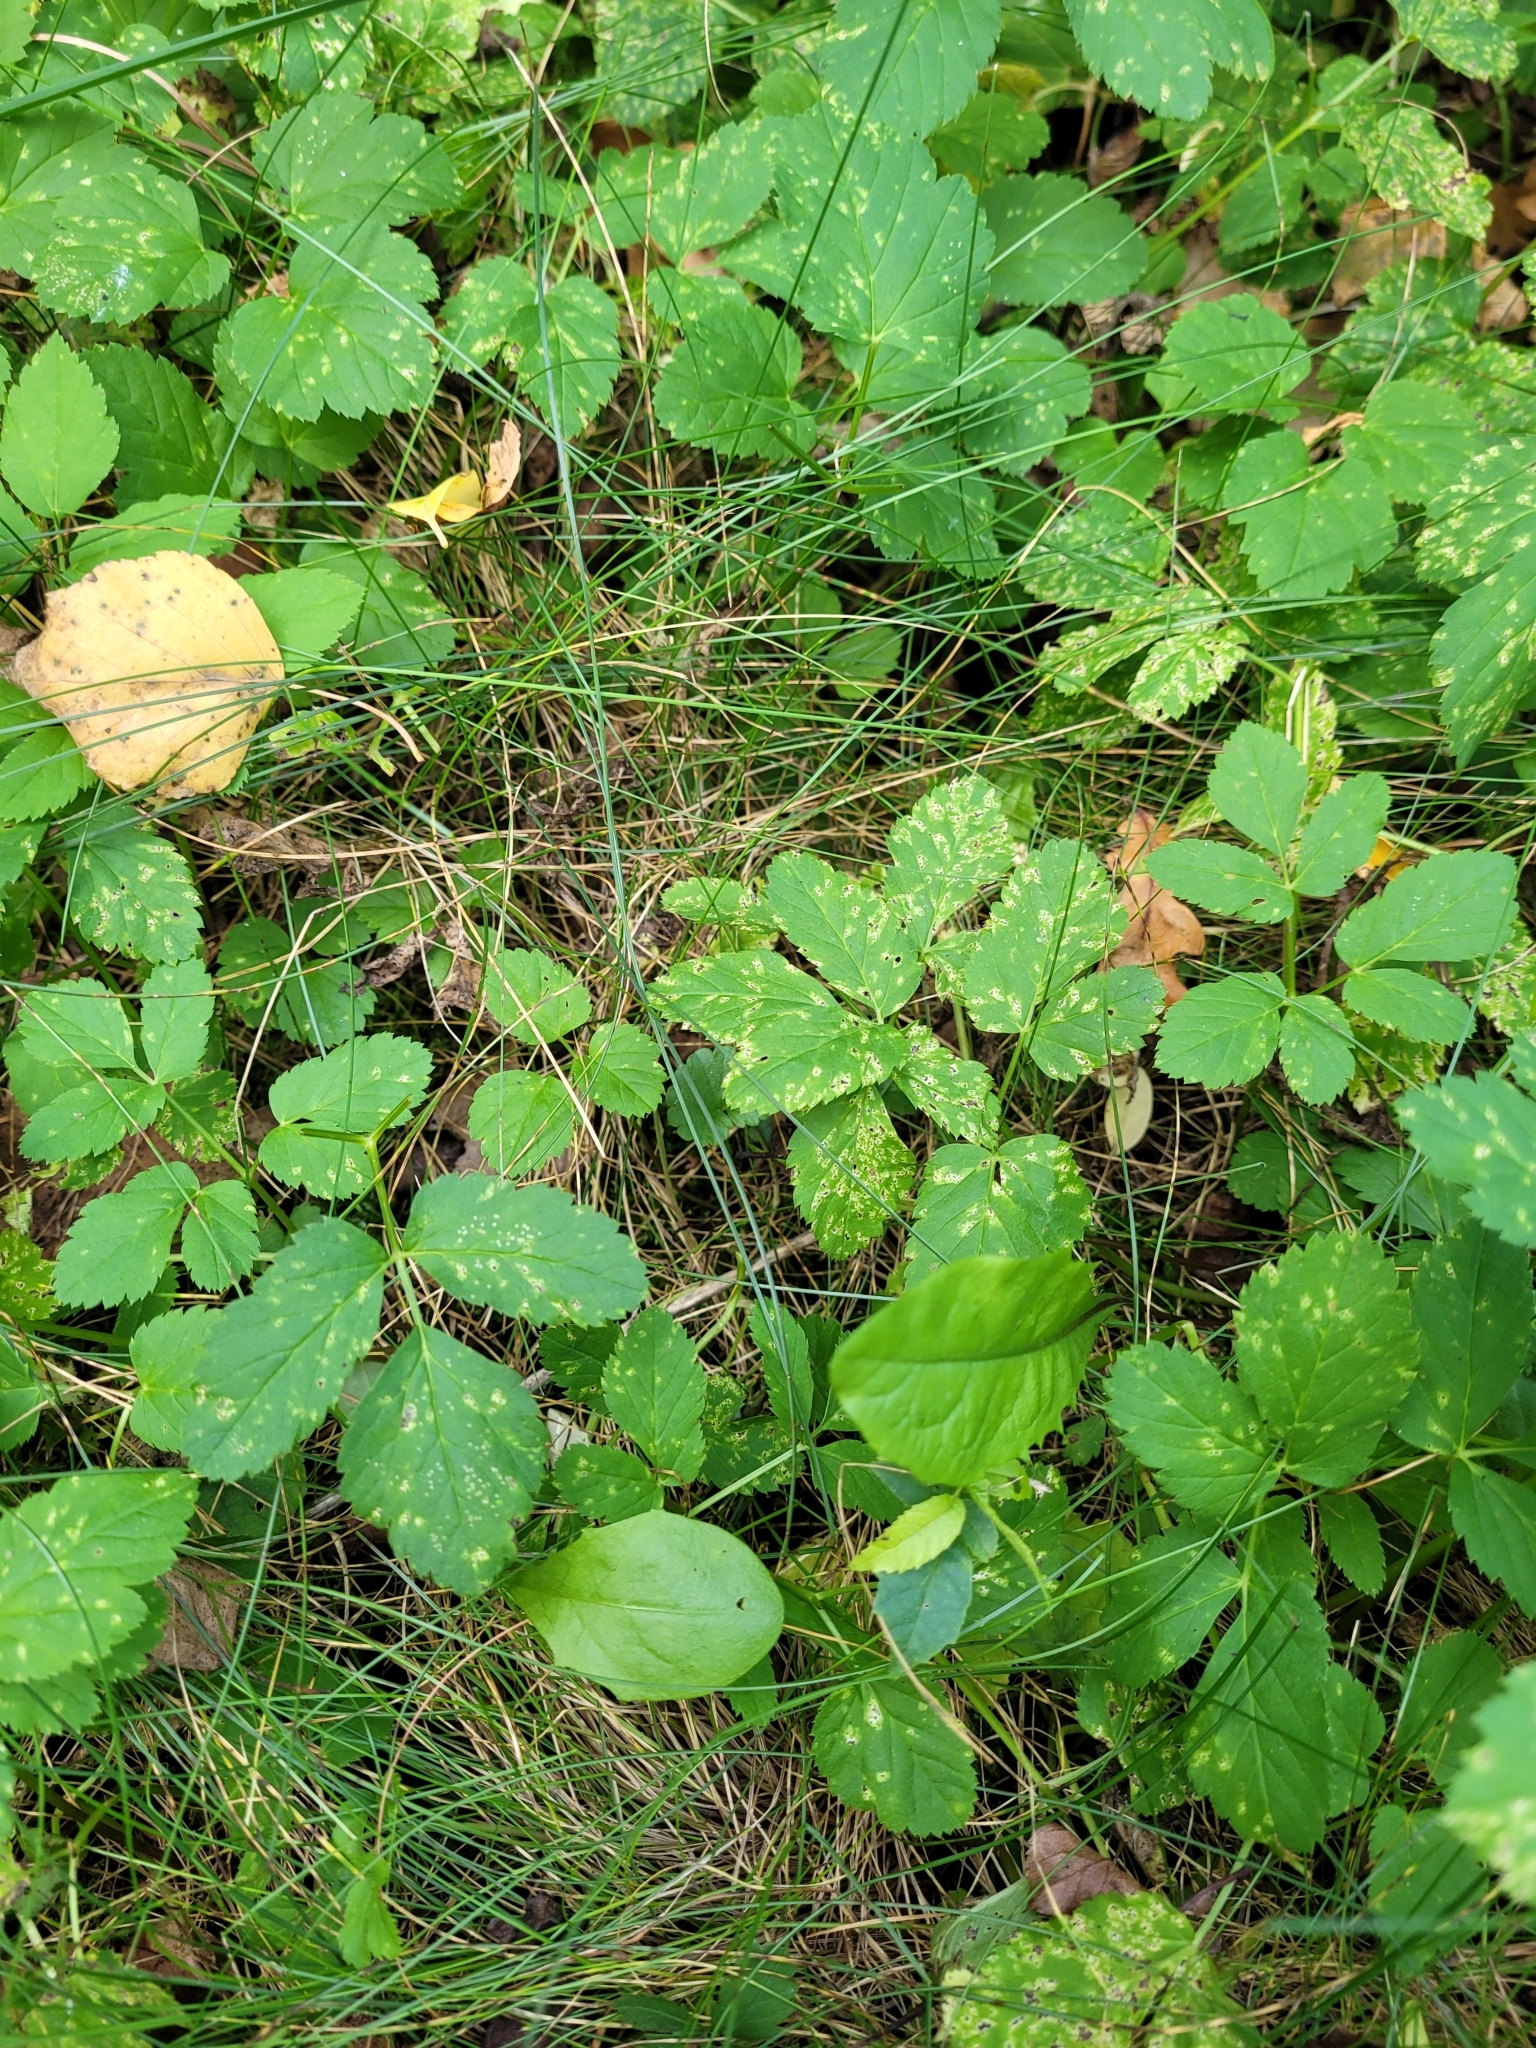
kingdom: Plantae
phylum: Tracheophyta
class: Magnoliopsida
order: Apiales
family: Apiaceae
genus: Aegopodium
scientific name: Aegopodium podagraria
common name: Ground-elder
